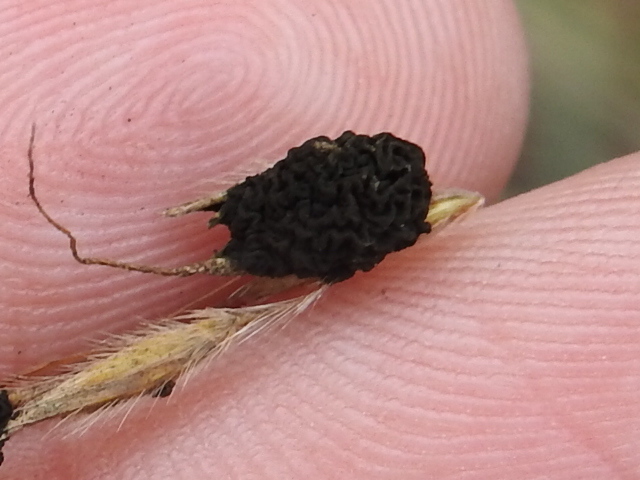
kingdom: Fungi
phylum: Ascomycota
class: Dothideomycetes
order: Pleosporales
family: Didymellaceae
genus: Epicoccum
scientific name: Epicoccum andropogonis
